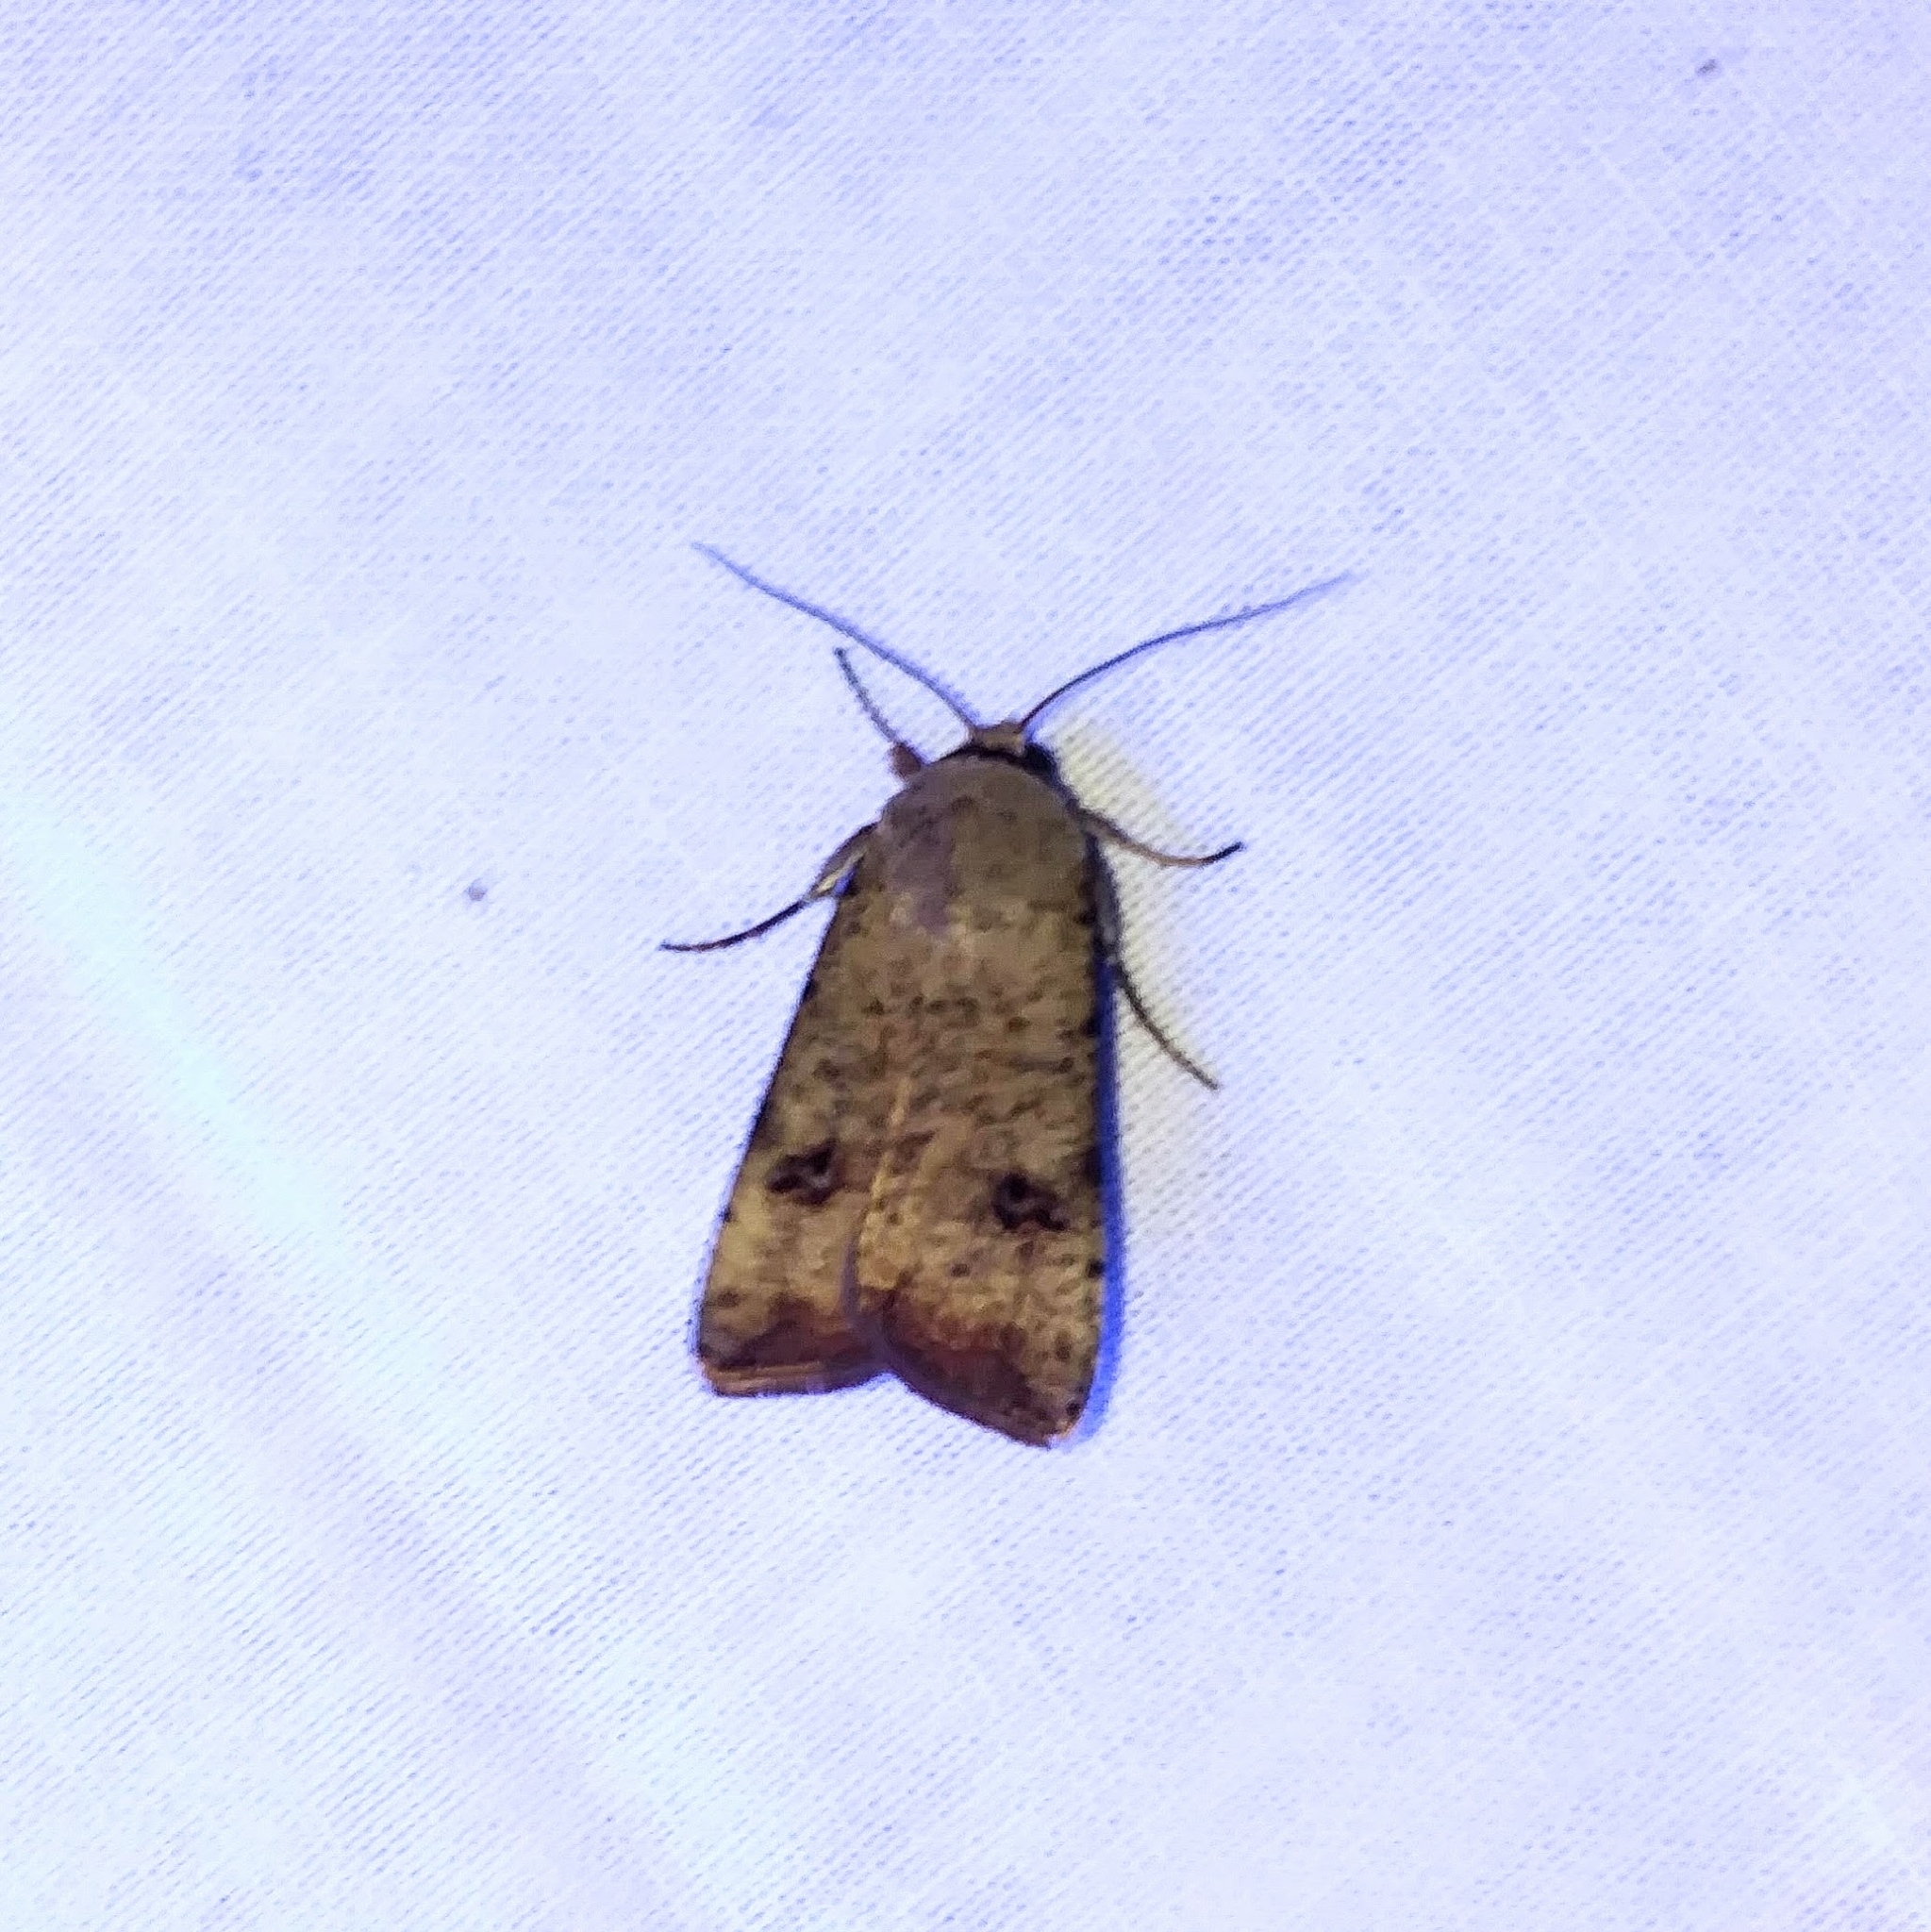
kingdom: Animalia
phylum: Arthropoda
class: Insecta
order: Lepidoptera
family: Noctuidae
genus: Anicla
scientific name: Anicla infecta
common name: Green cutworm
